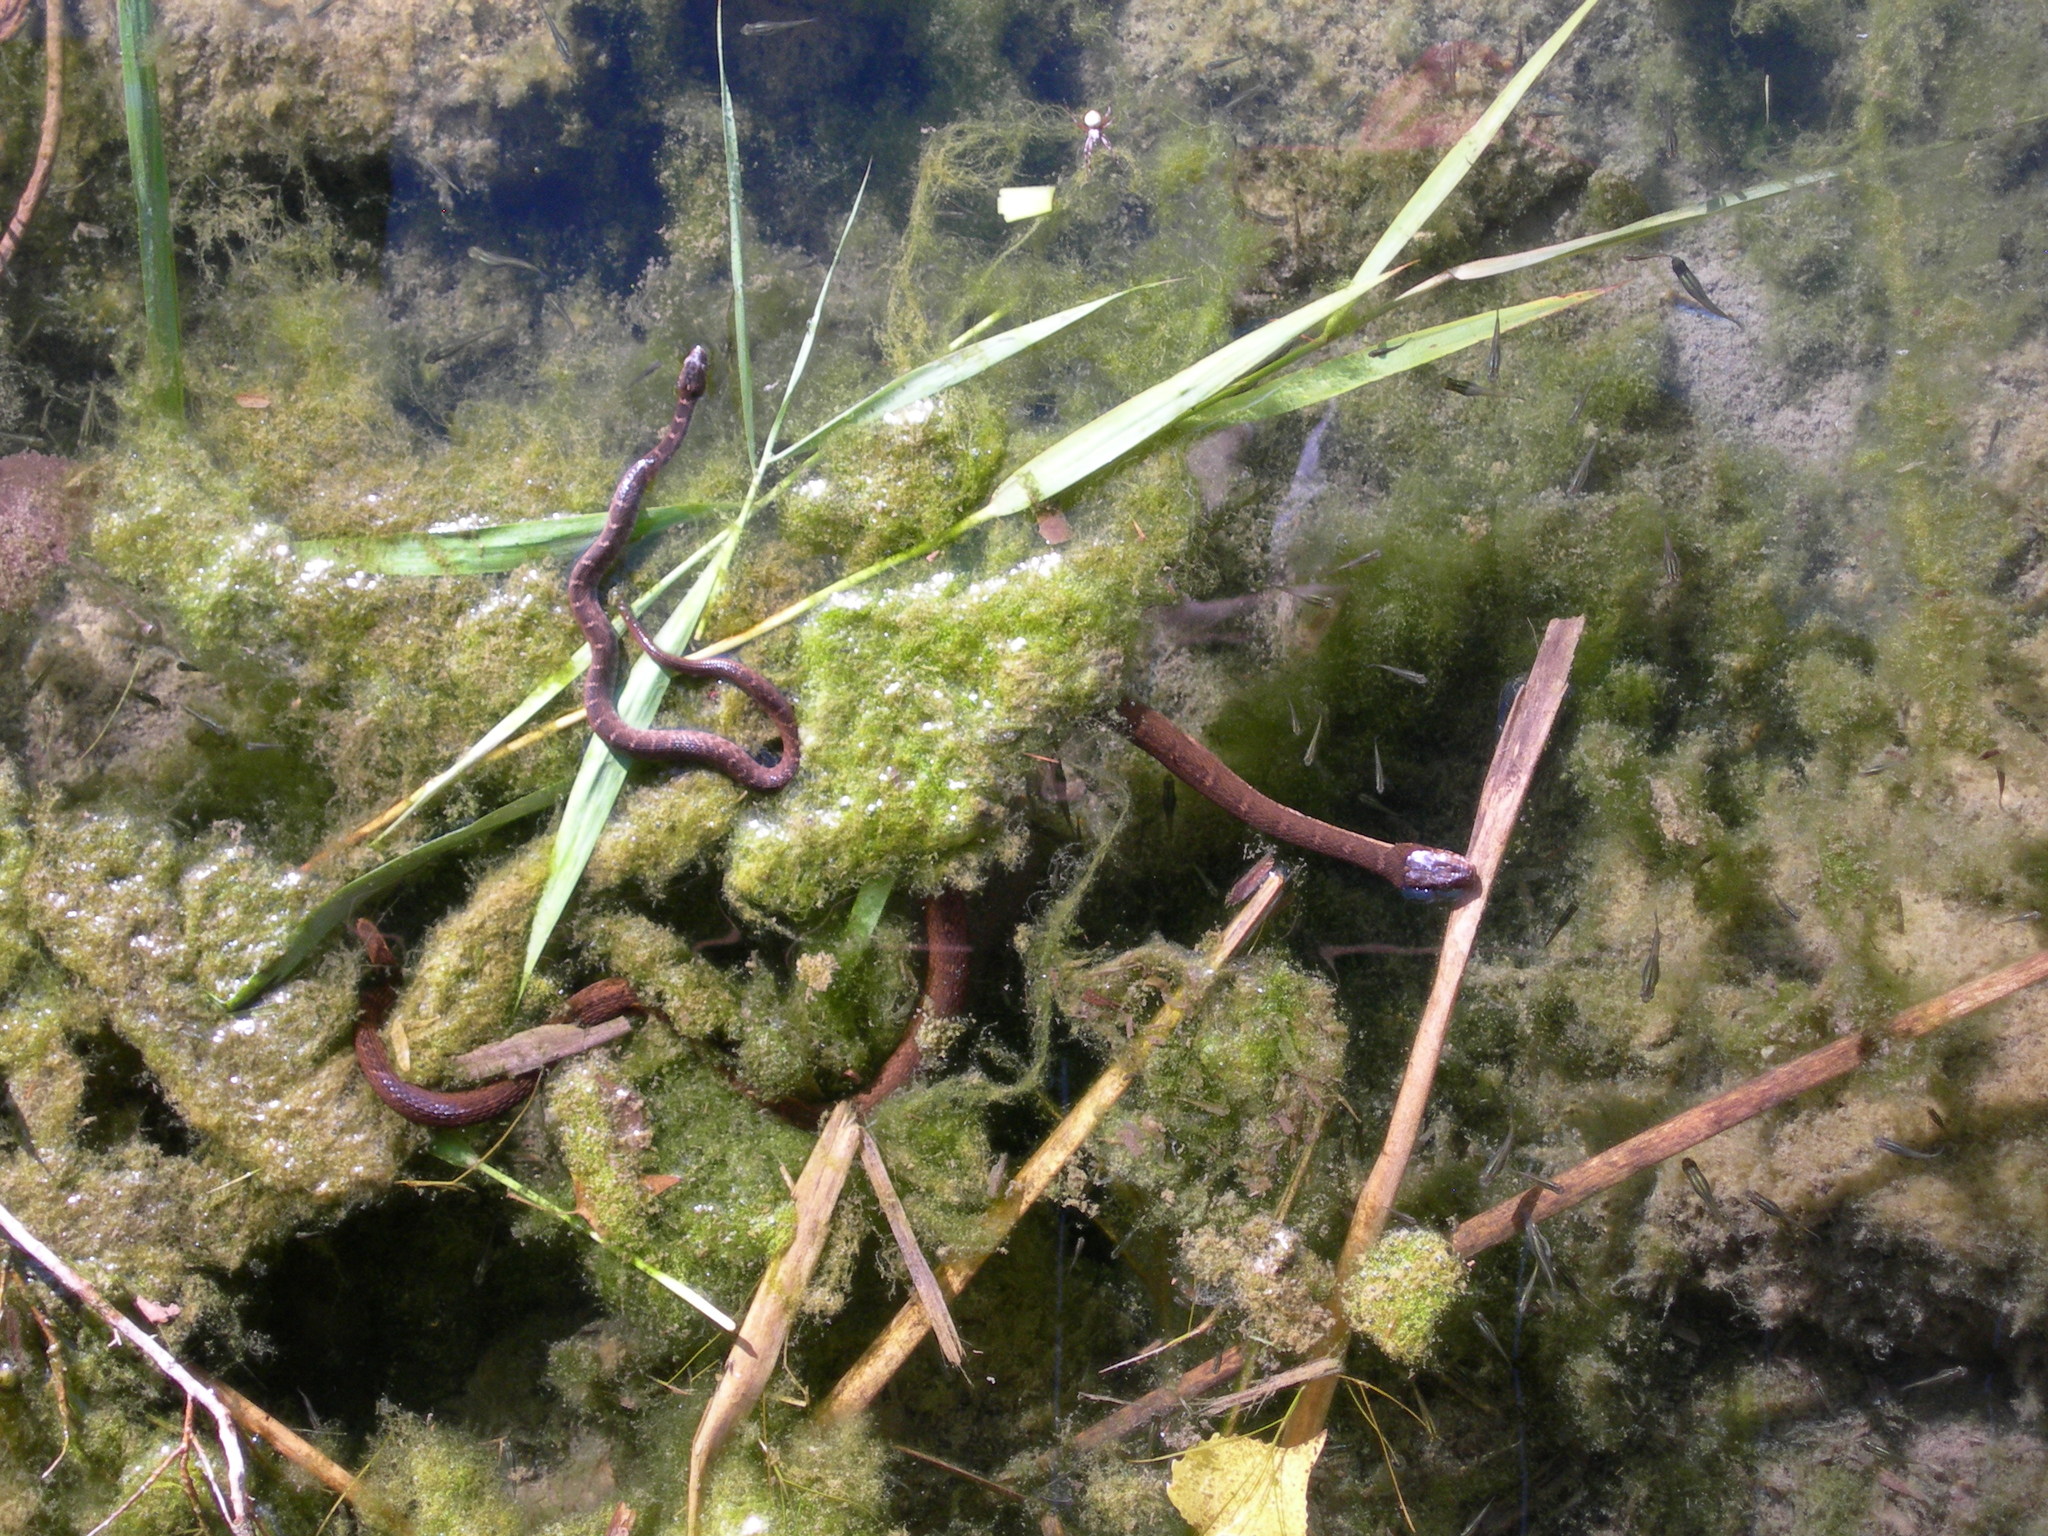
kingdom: Animalia
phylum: Chordata
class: Squamata
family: Colubridae
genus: Nerodia
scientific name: Nerodia erythrogaster
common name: Plainbelly water snake
